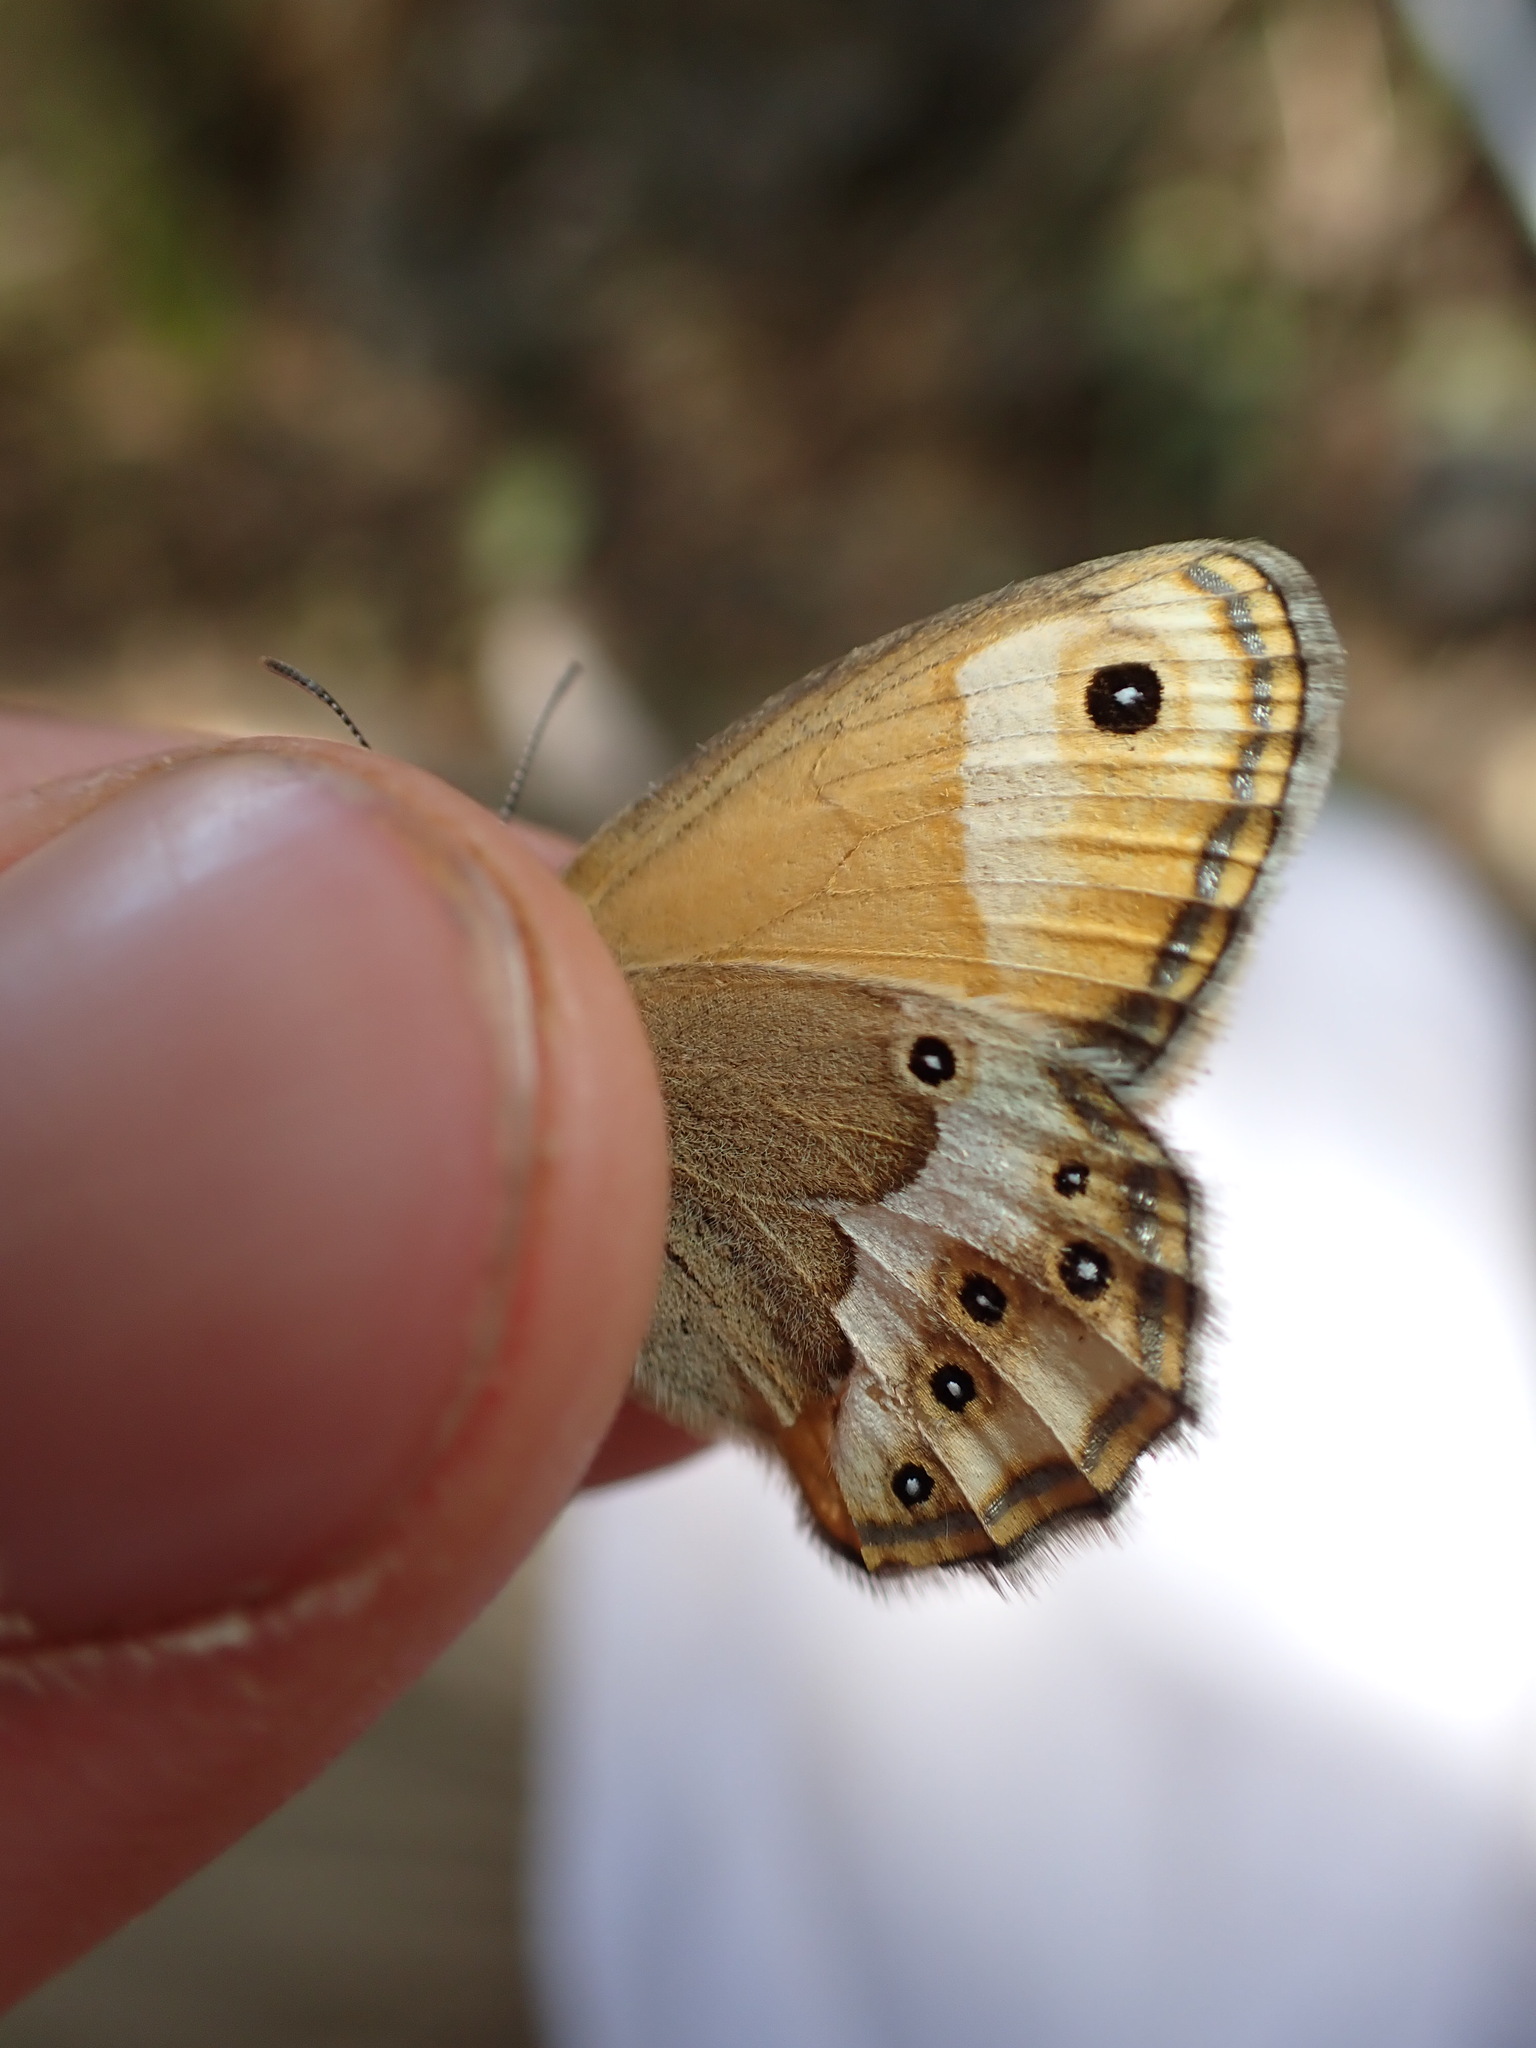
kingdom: Animalia
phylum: Arthropoda
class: Insecta
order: Lepidoptera
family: Nymphalidae
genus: Coenonympha
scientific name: Coenonympha dorus
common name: Dusky heath
